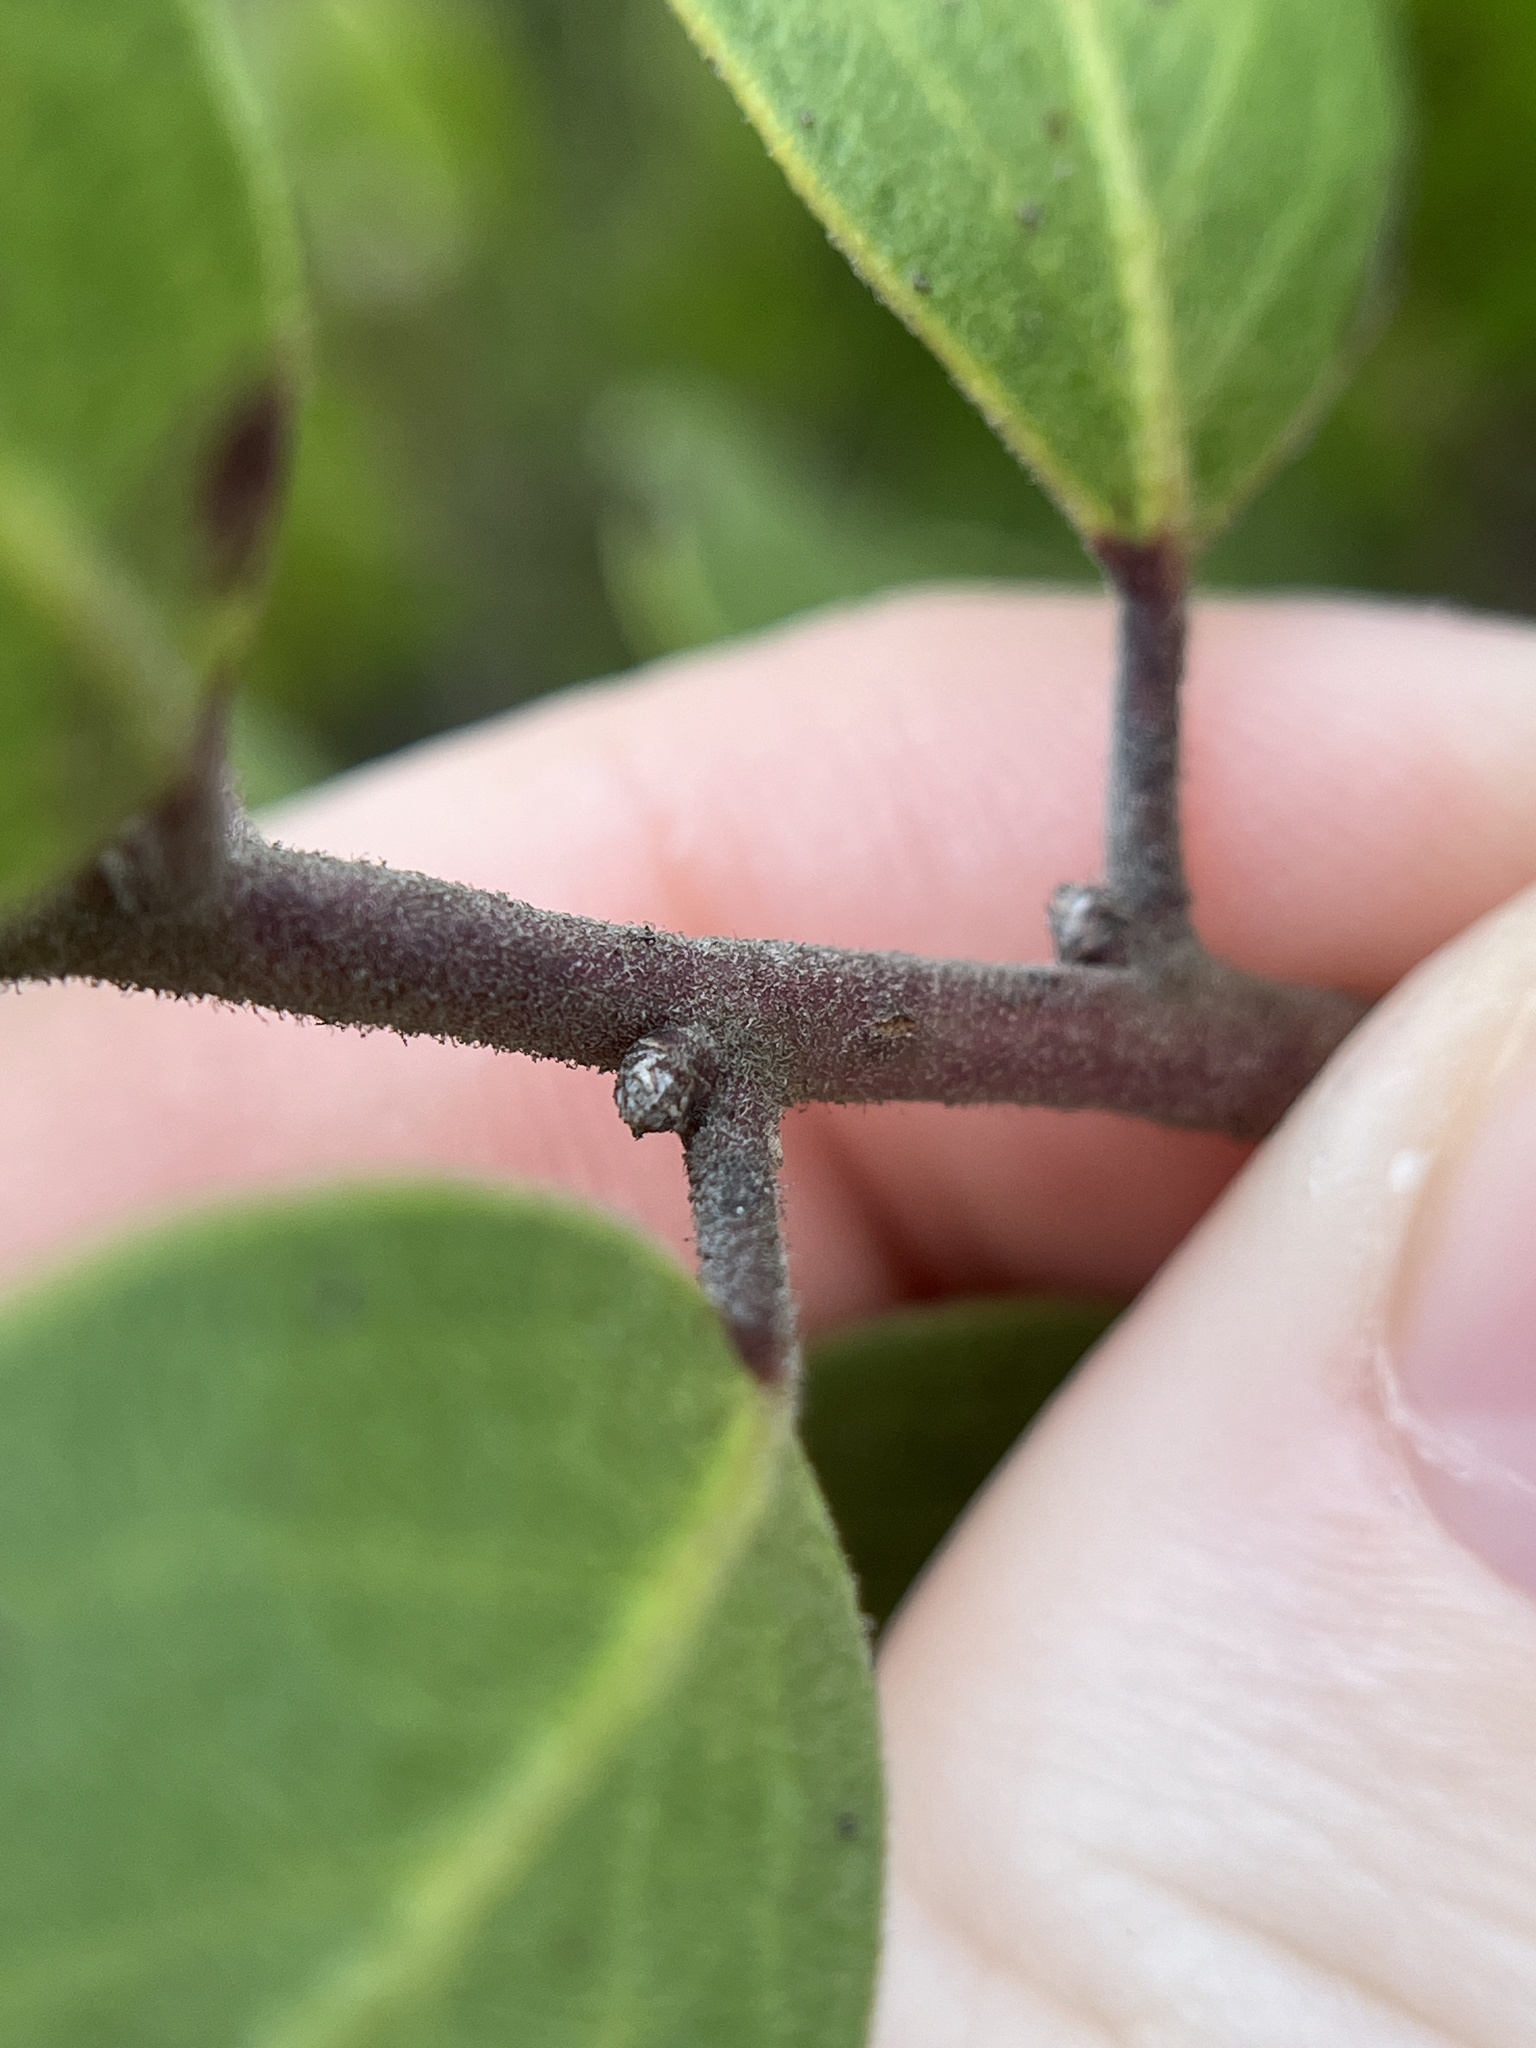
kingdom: Plantae
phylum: Tracheophyta
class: Magnoliopsida
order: Ericales
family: Ericaceae
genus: Arctostaphylos
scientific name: Arctostaphylos rudis
